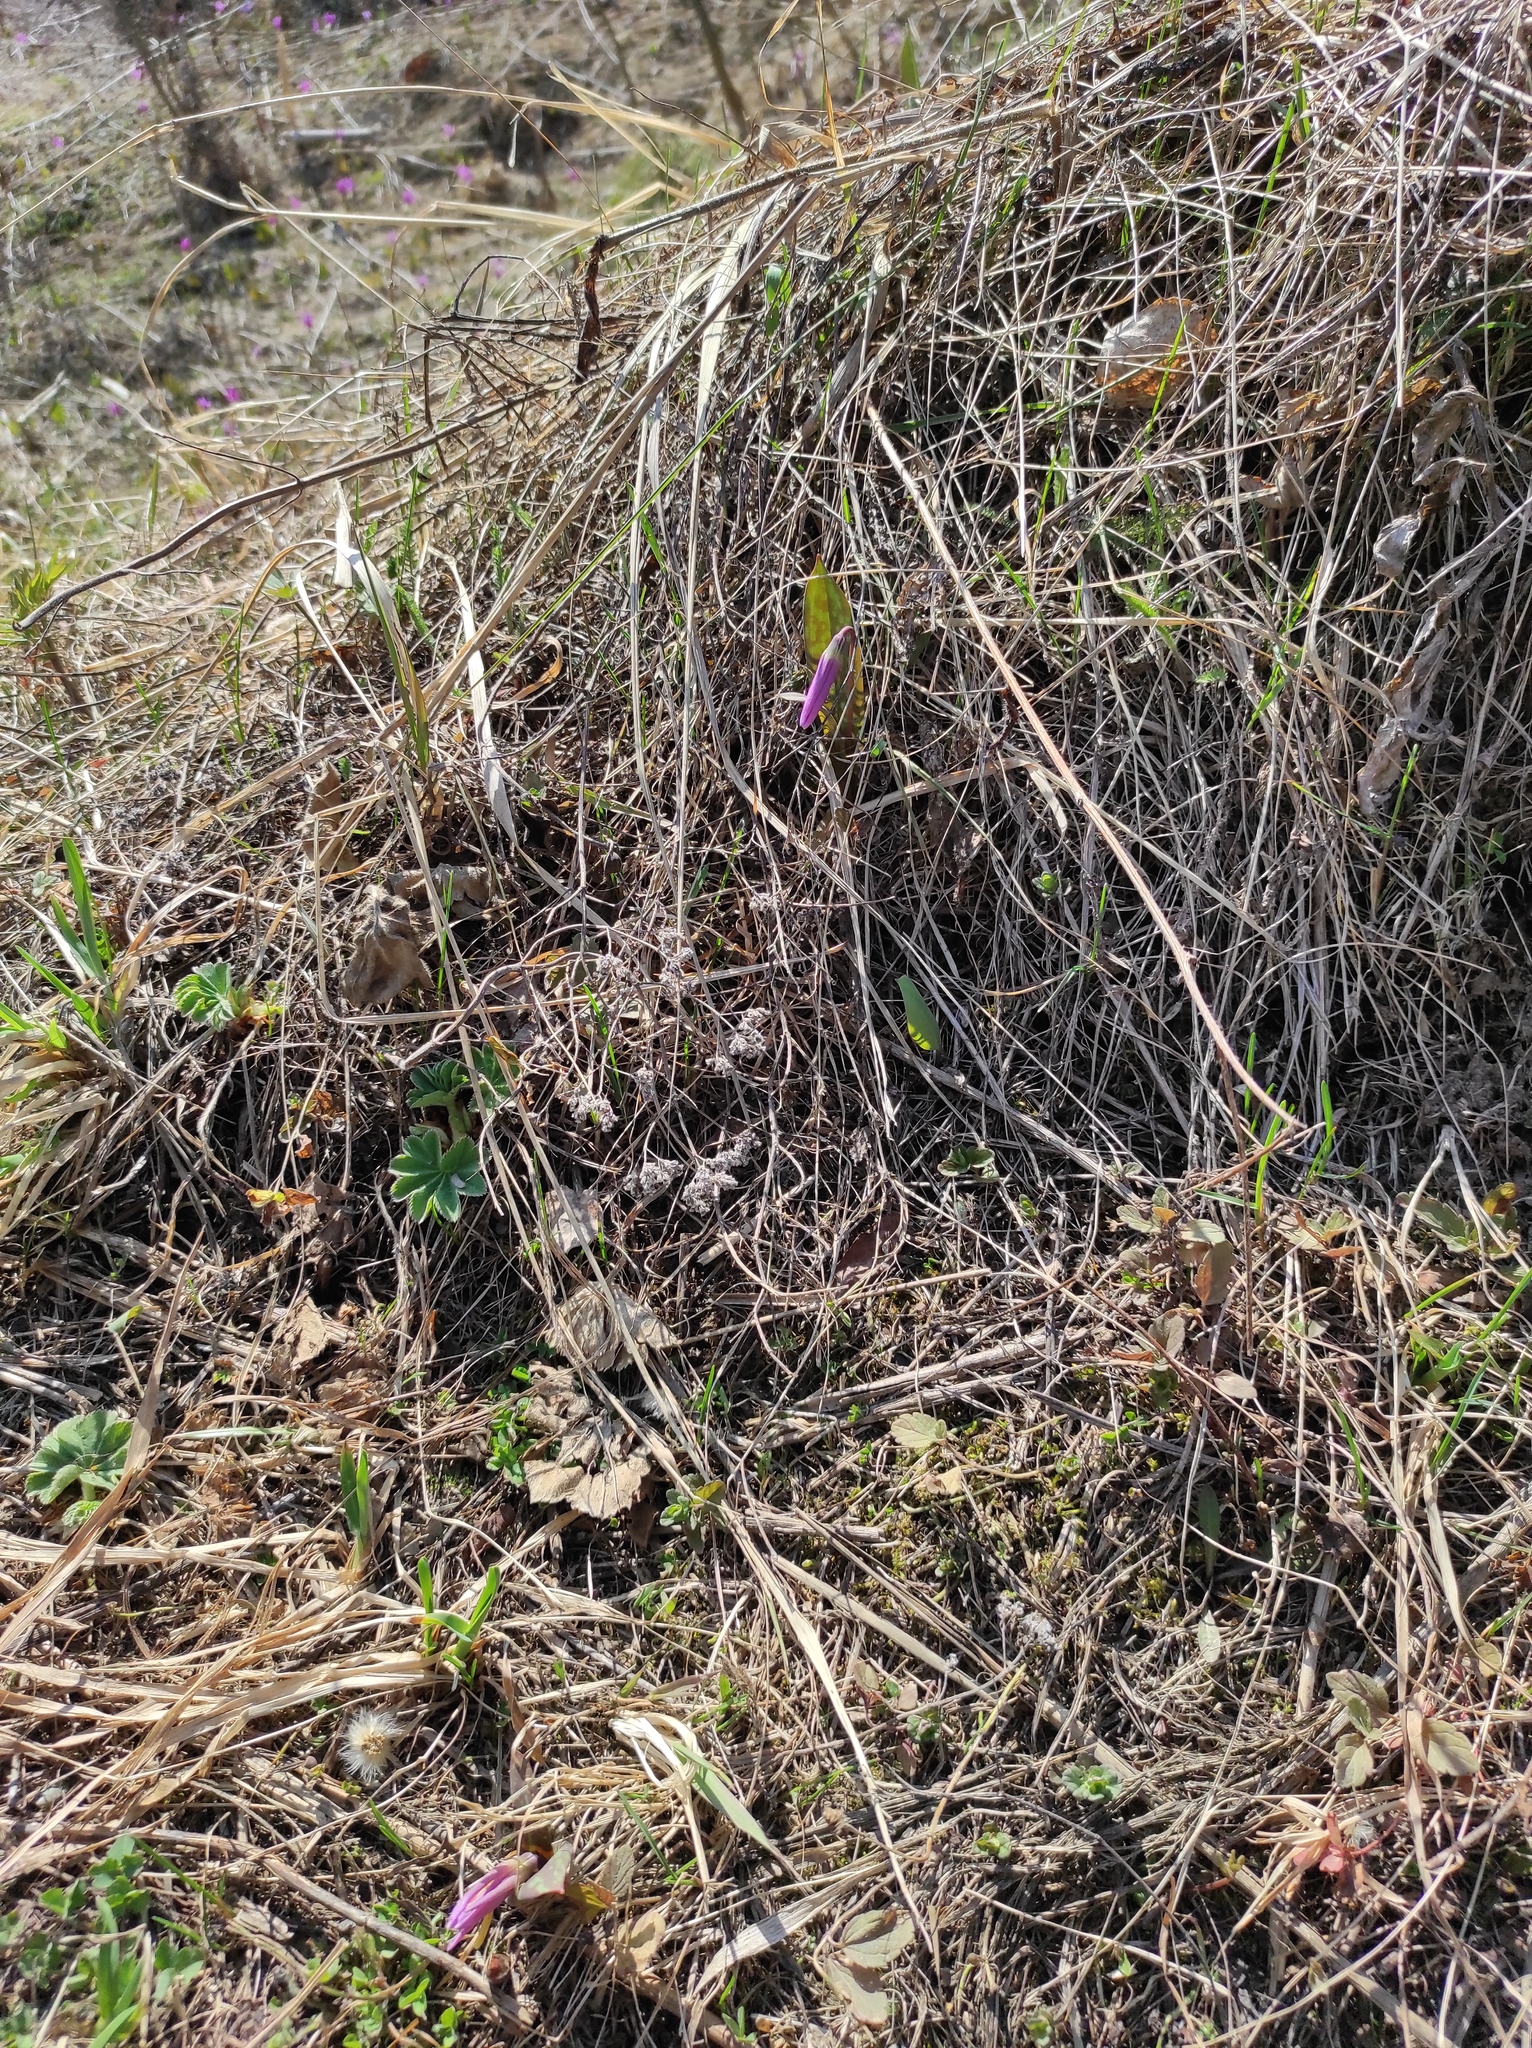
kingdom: Plantae
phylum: Tracheophyta
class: Liliopsida
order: Liliales
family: Liliaceae
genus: Erythronium
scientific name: Erythronium sibiricum
